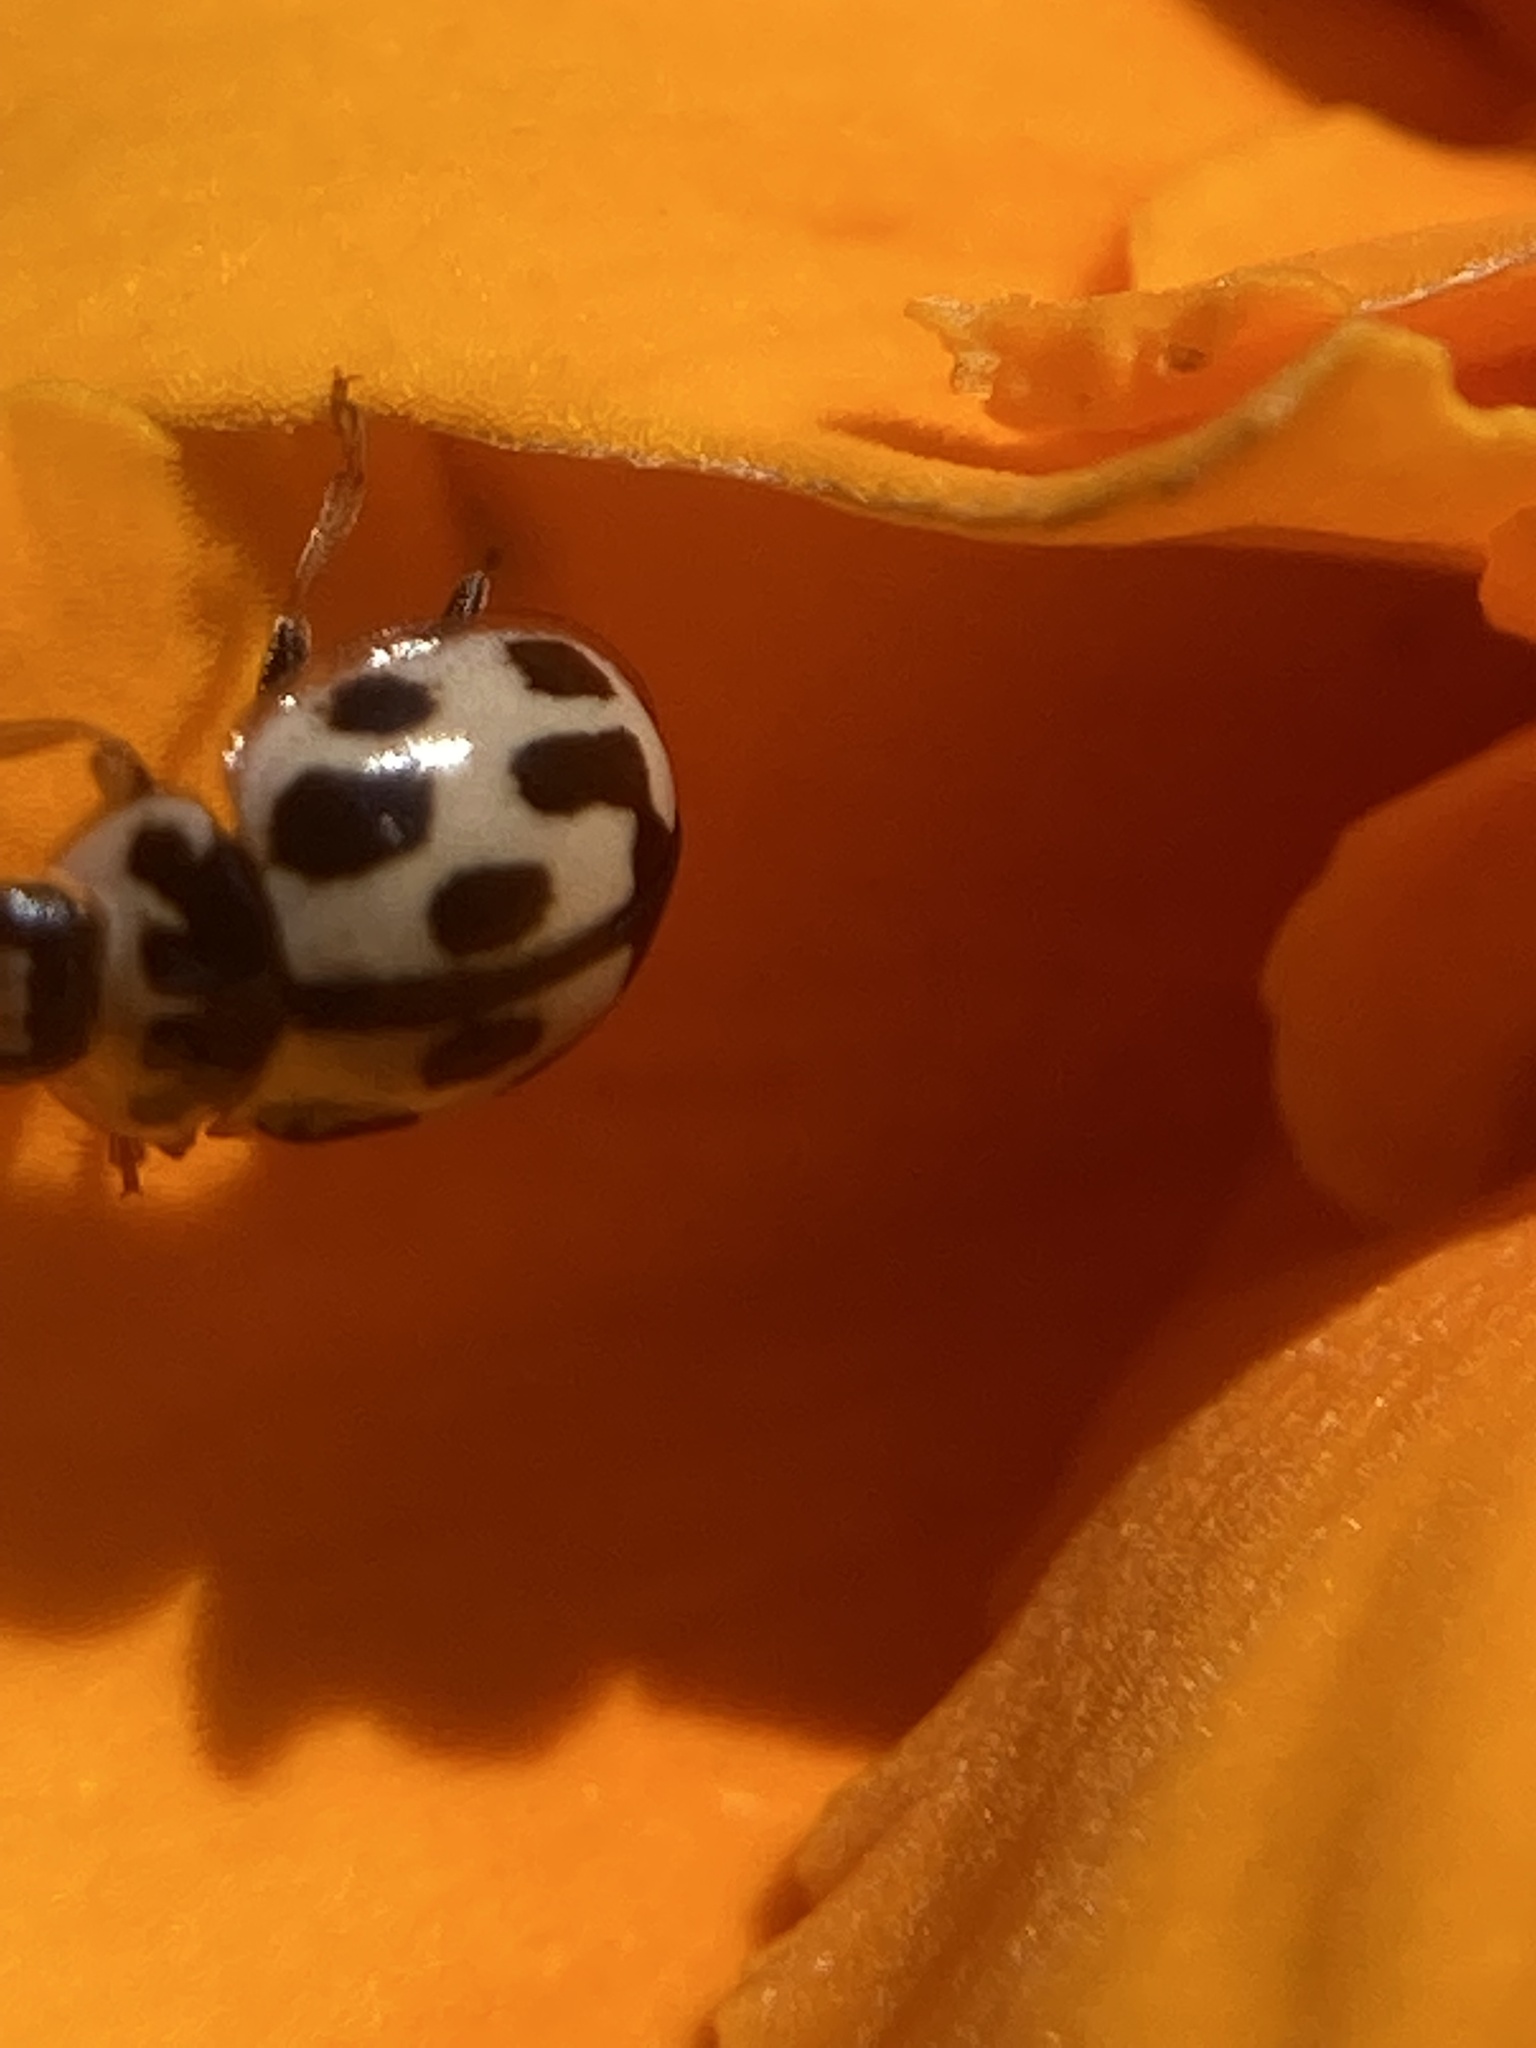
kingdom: Animalia
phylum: Arthropoda
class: Insecta
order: Coleoptera
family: Coccinellidae
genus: Propylaea
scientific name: Propylaea quatuordecimpunctata
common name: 14-spotted ladybird beetle
